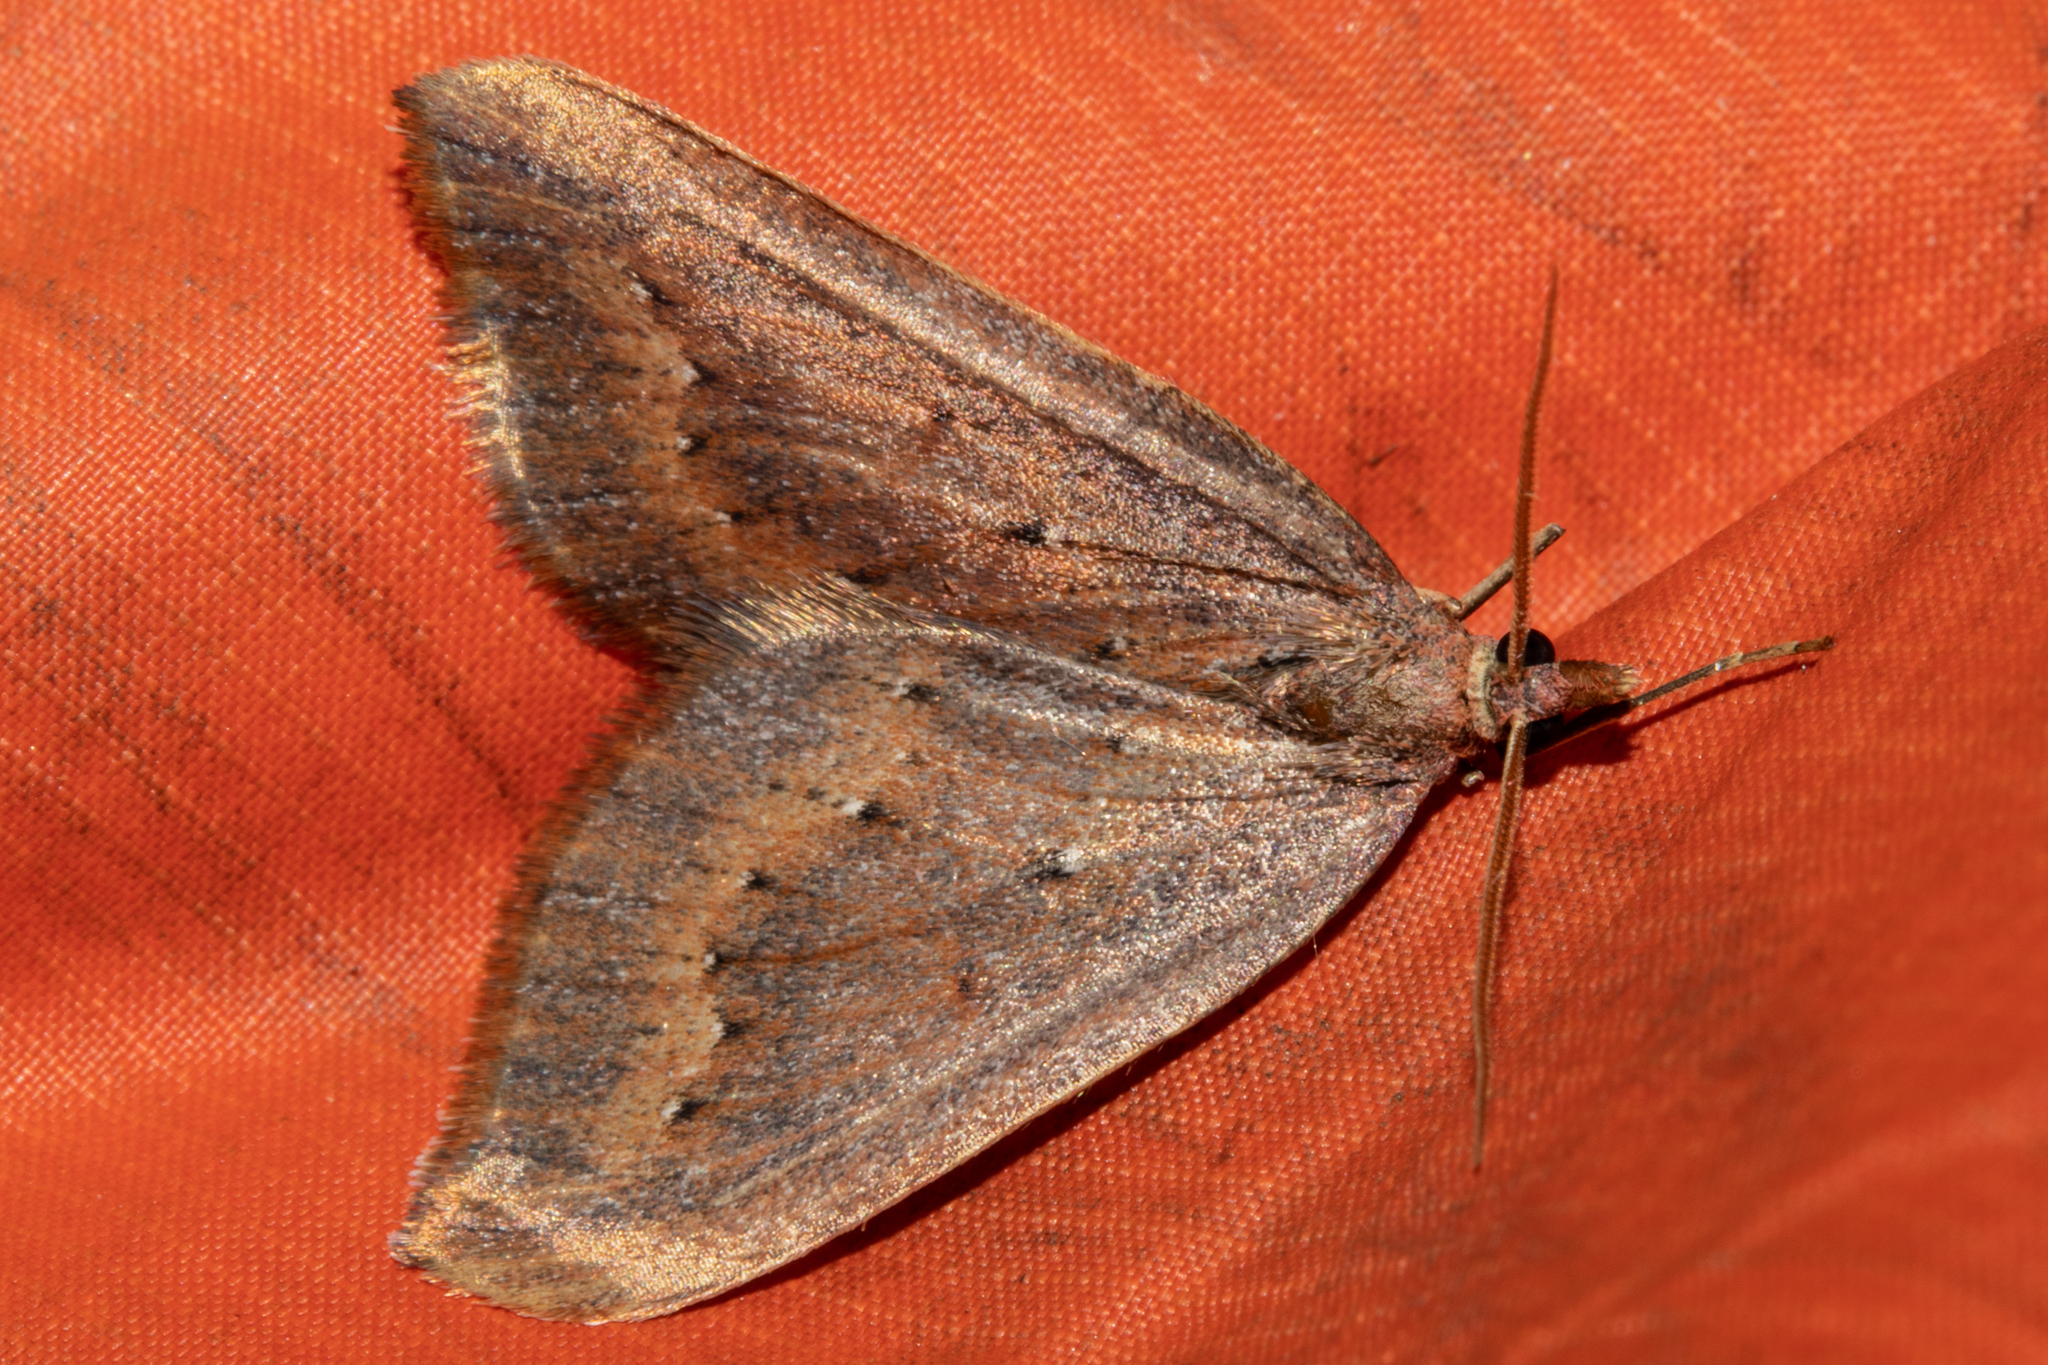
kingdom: Animalia
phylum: Arthropoda
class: Insecta
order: Lepidoptera
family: Geometridae
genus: Xanthorhoe
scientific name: Xanthorhoe occulta
